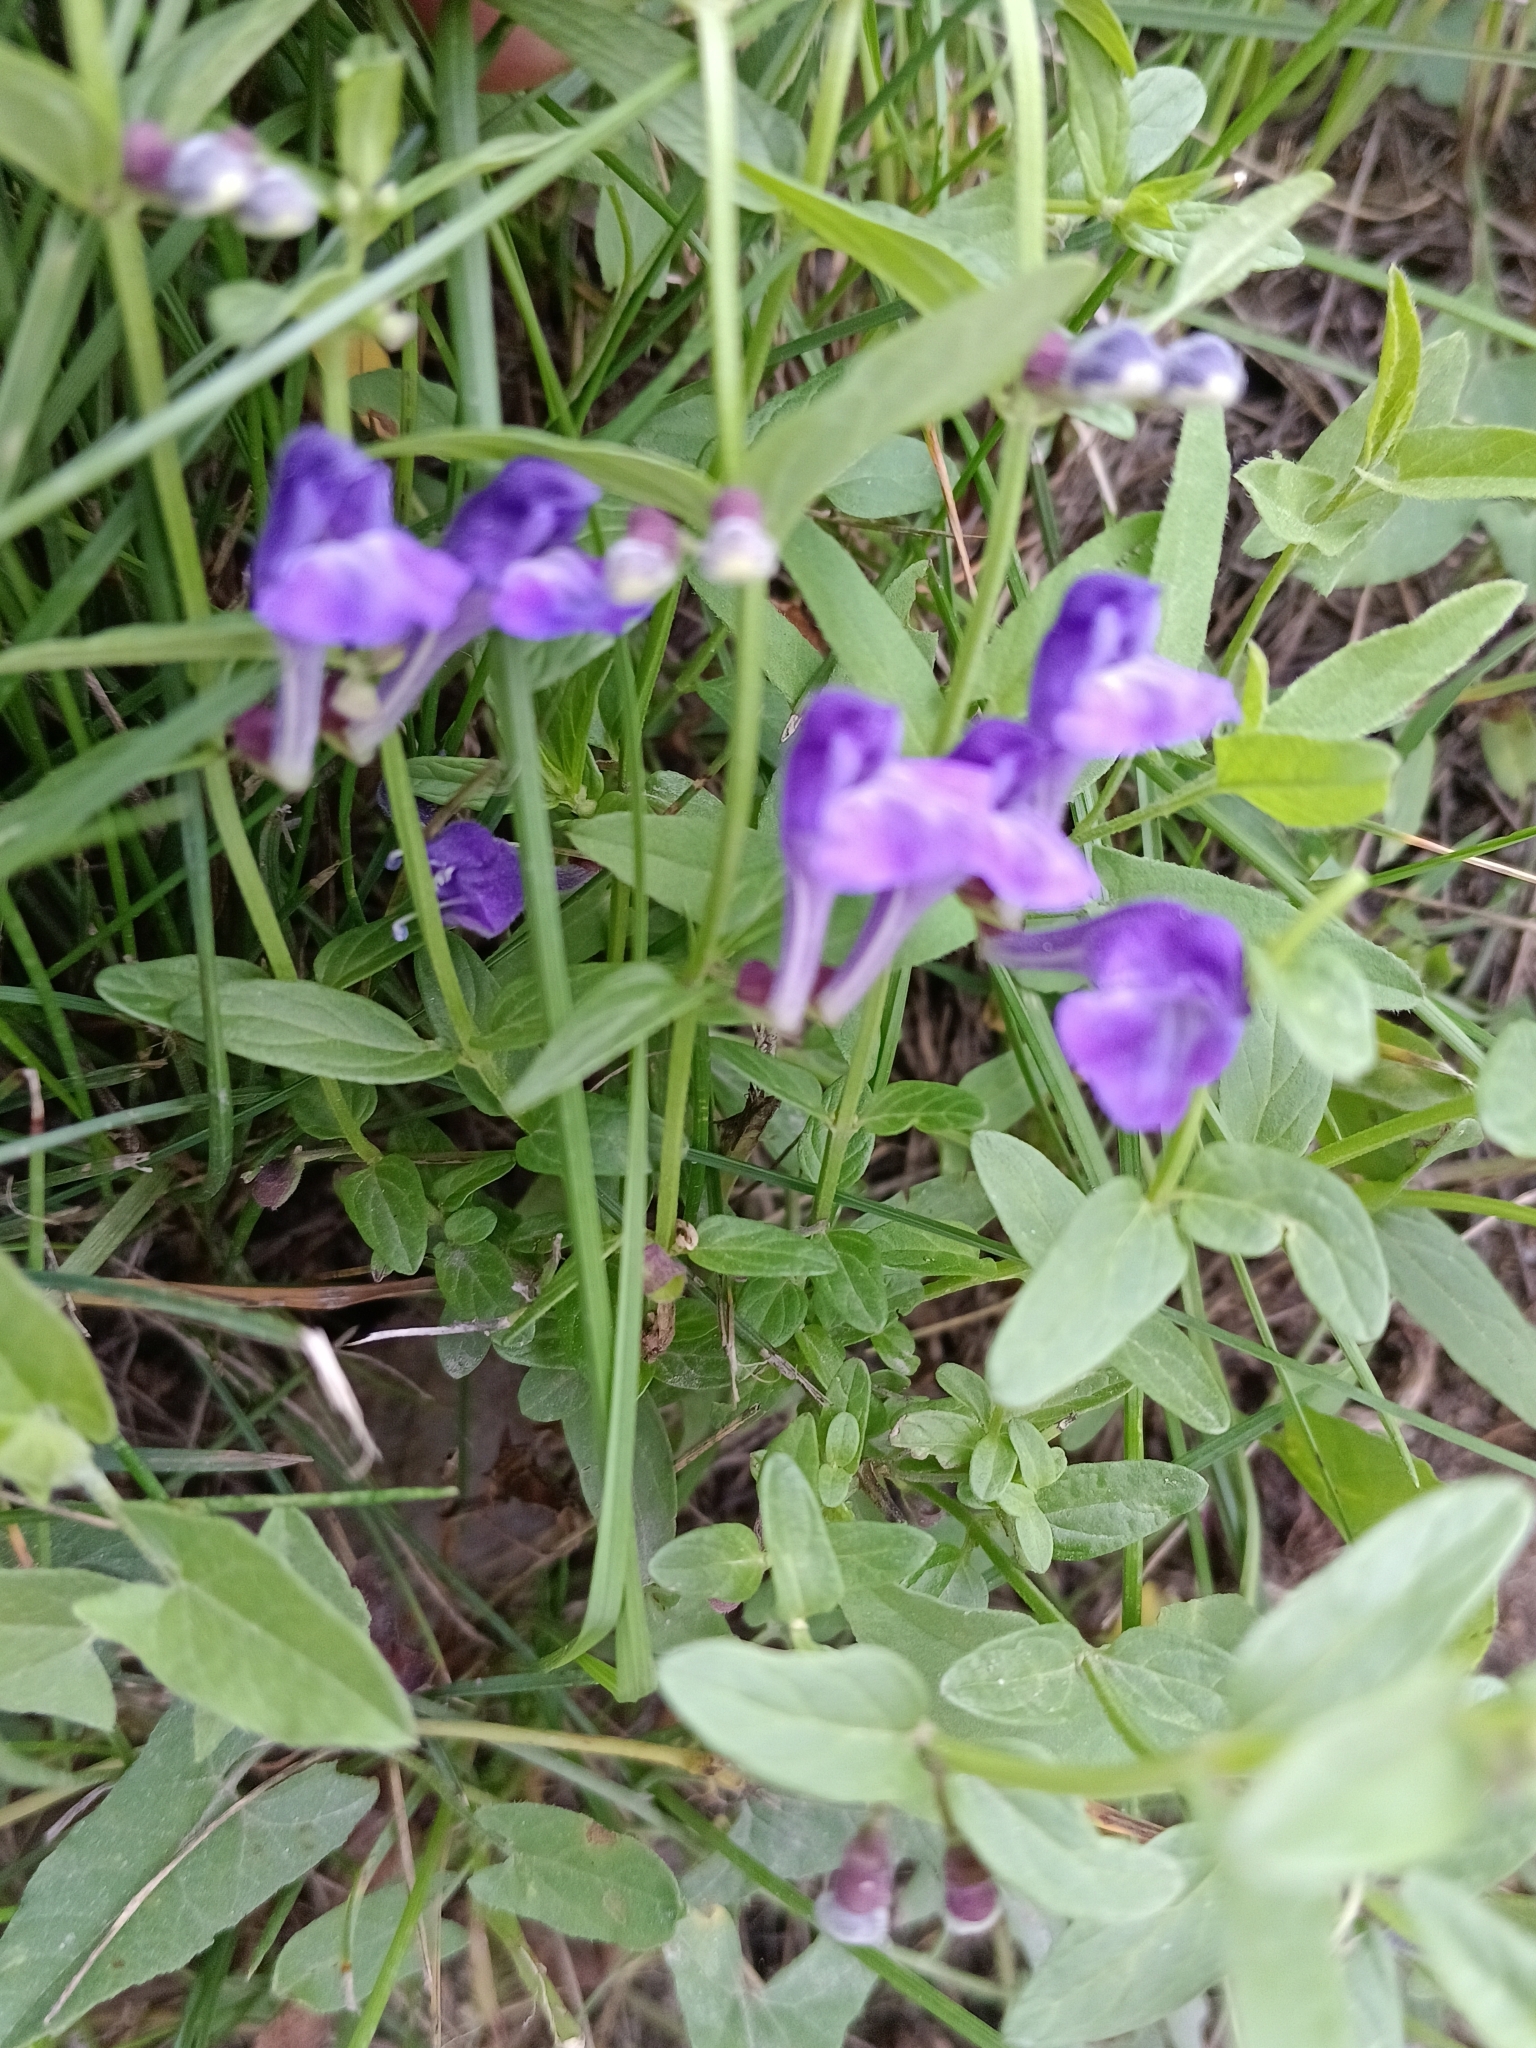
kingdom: Plantae
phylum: Tracheophyta
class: Magnoliopsida
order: Lamiales
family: Lamiaceae
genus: Scutellaria
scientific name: Scutellaria scordiifolia
